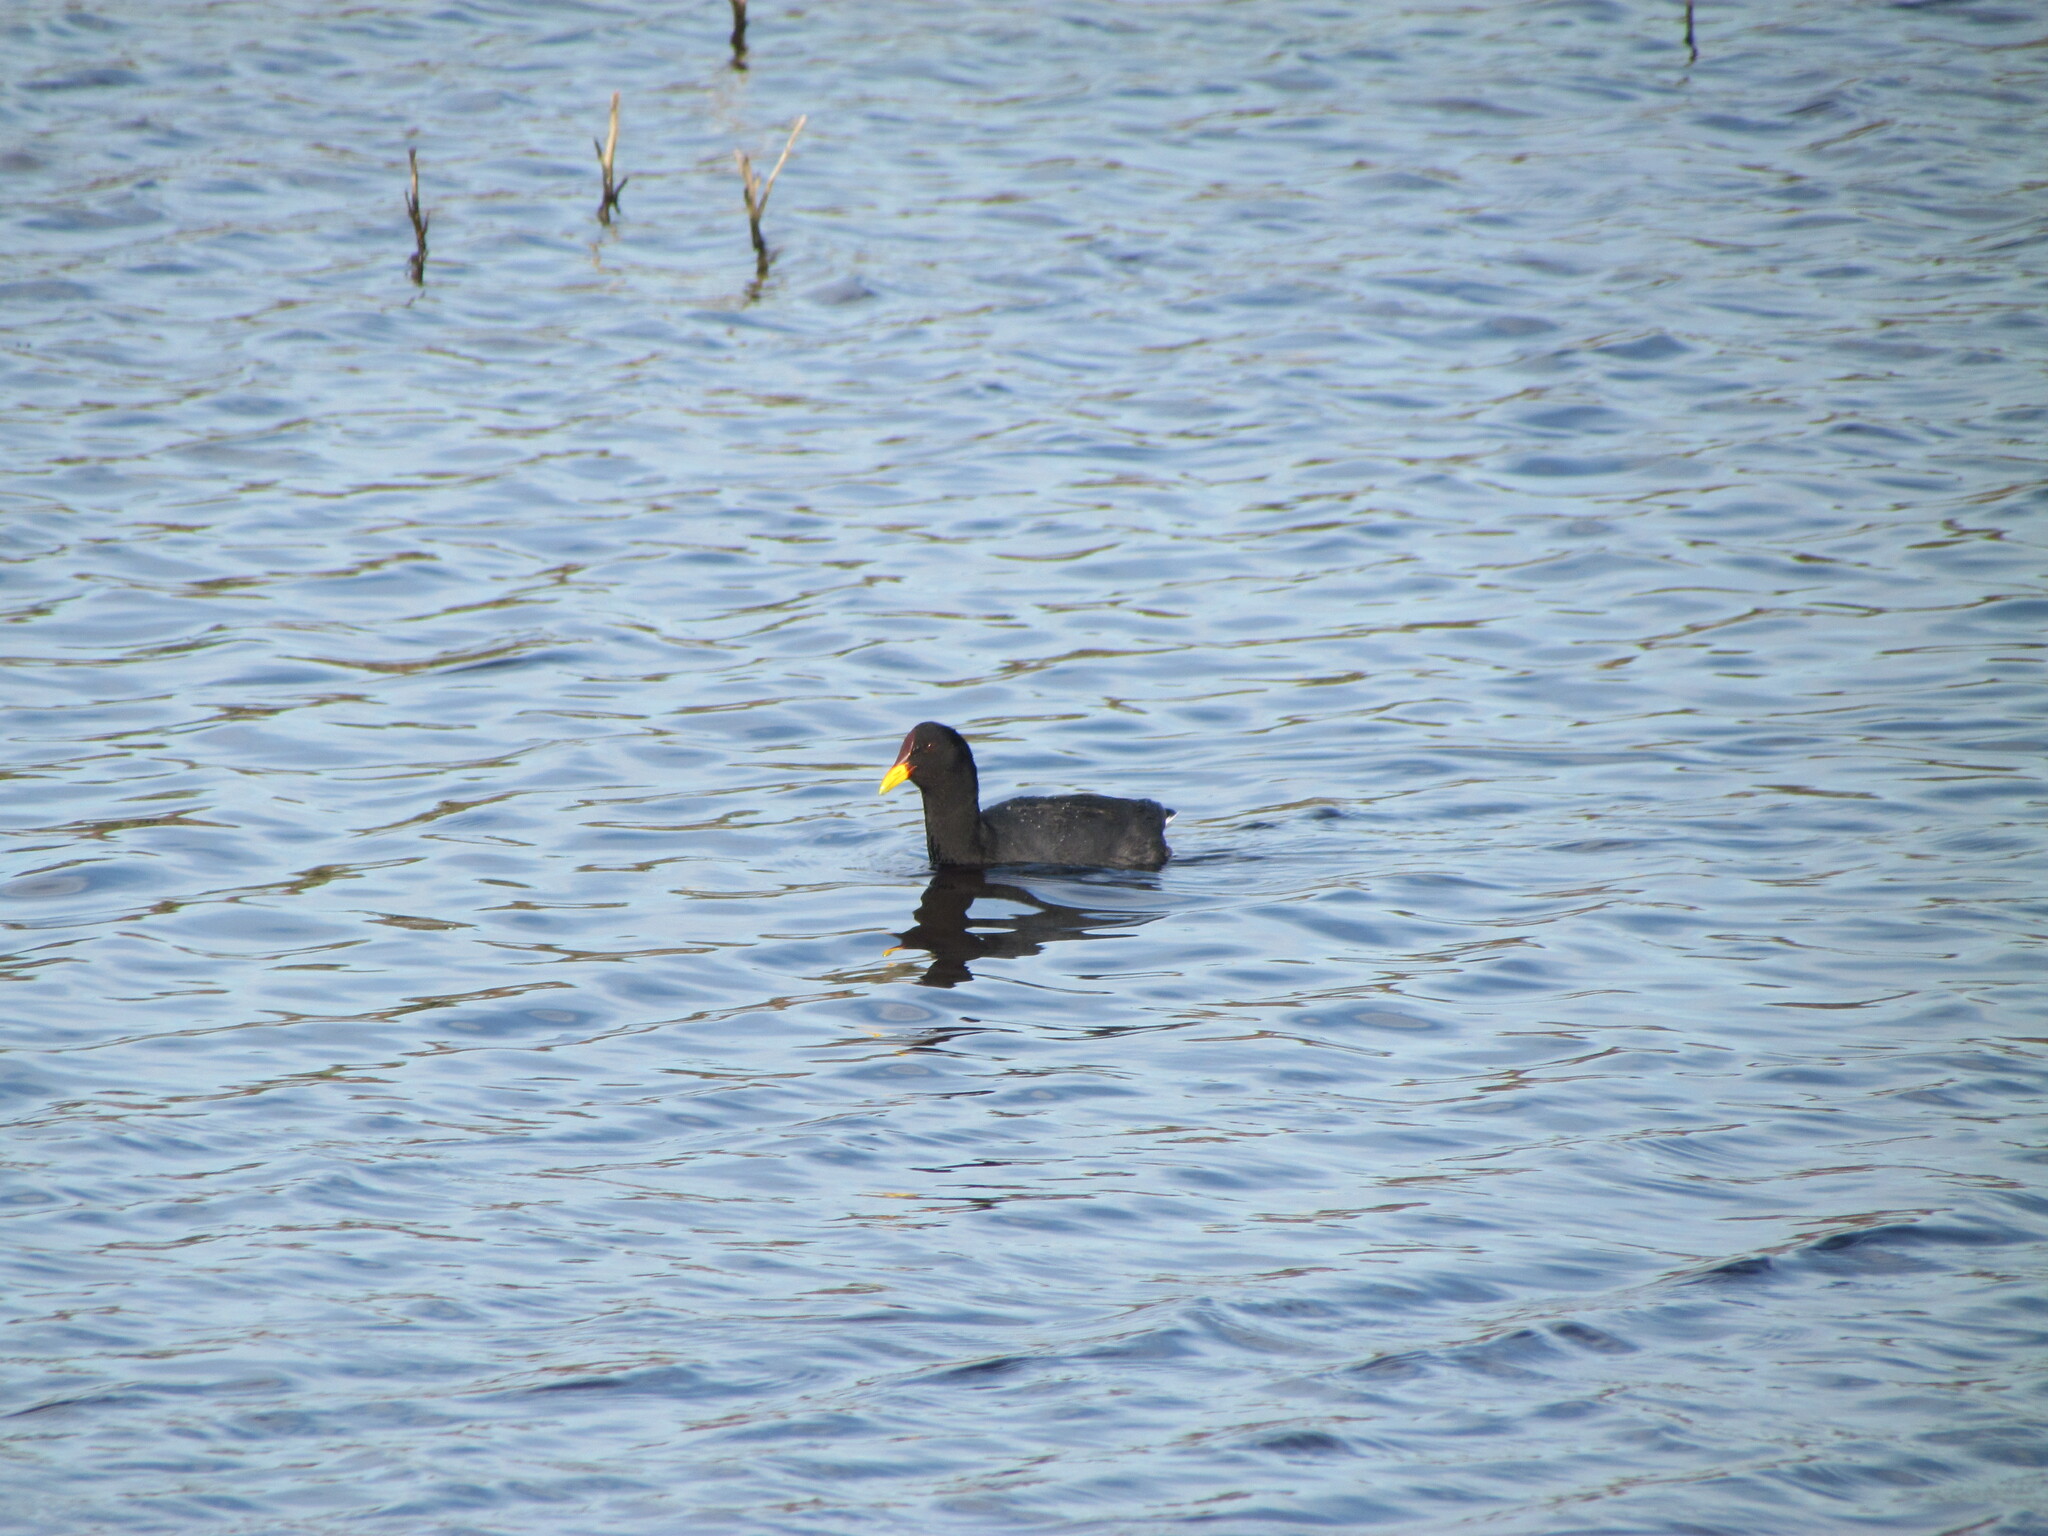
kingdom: Animalia
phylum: Chordata
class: Aves
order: Gruiformes
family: Rallidae
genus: Fulica
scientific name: Fulica rufifrons
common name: Red-fronted coot
